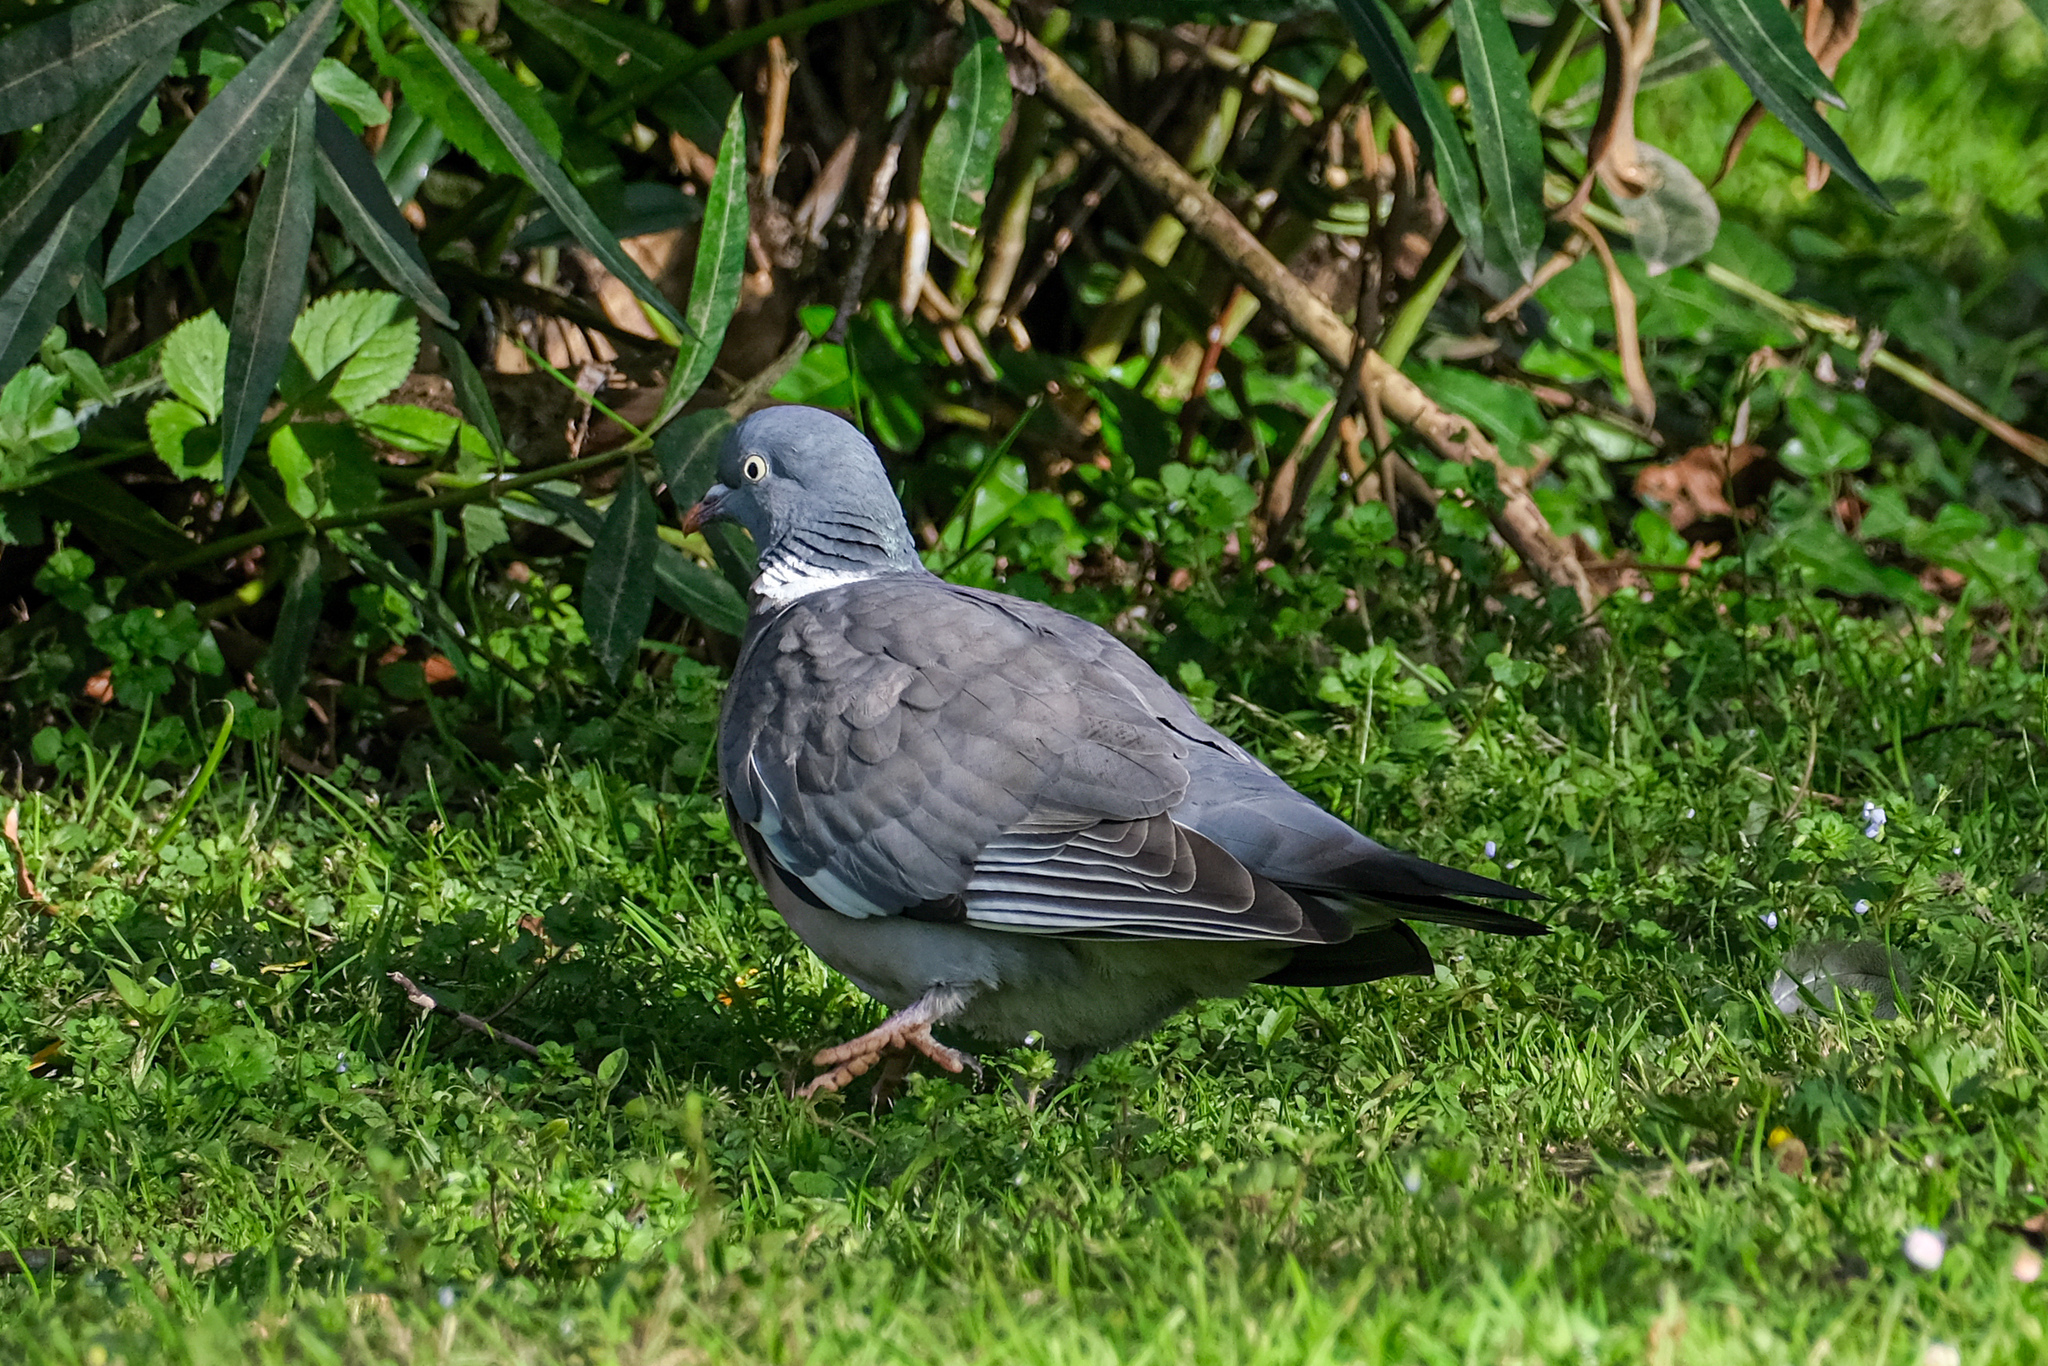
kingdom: Animalia
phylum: Chordata
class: Aves
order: Columbiformes
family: Columbidae
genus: Columba
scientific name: Columba palumbus
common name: Common wood pigeon
